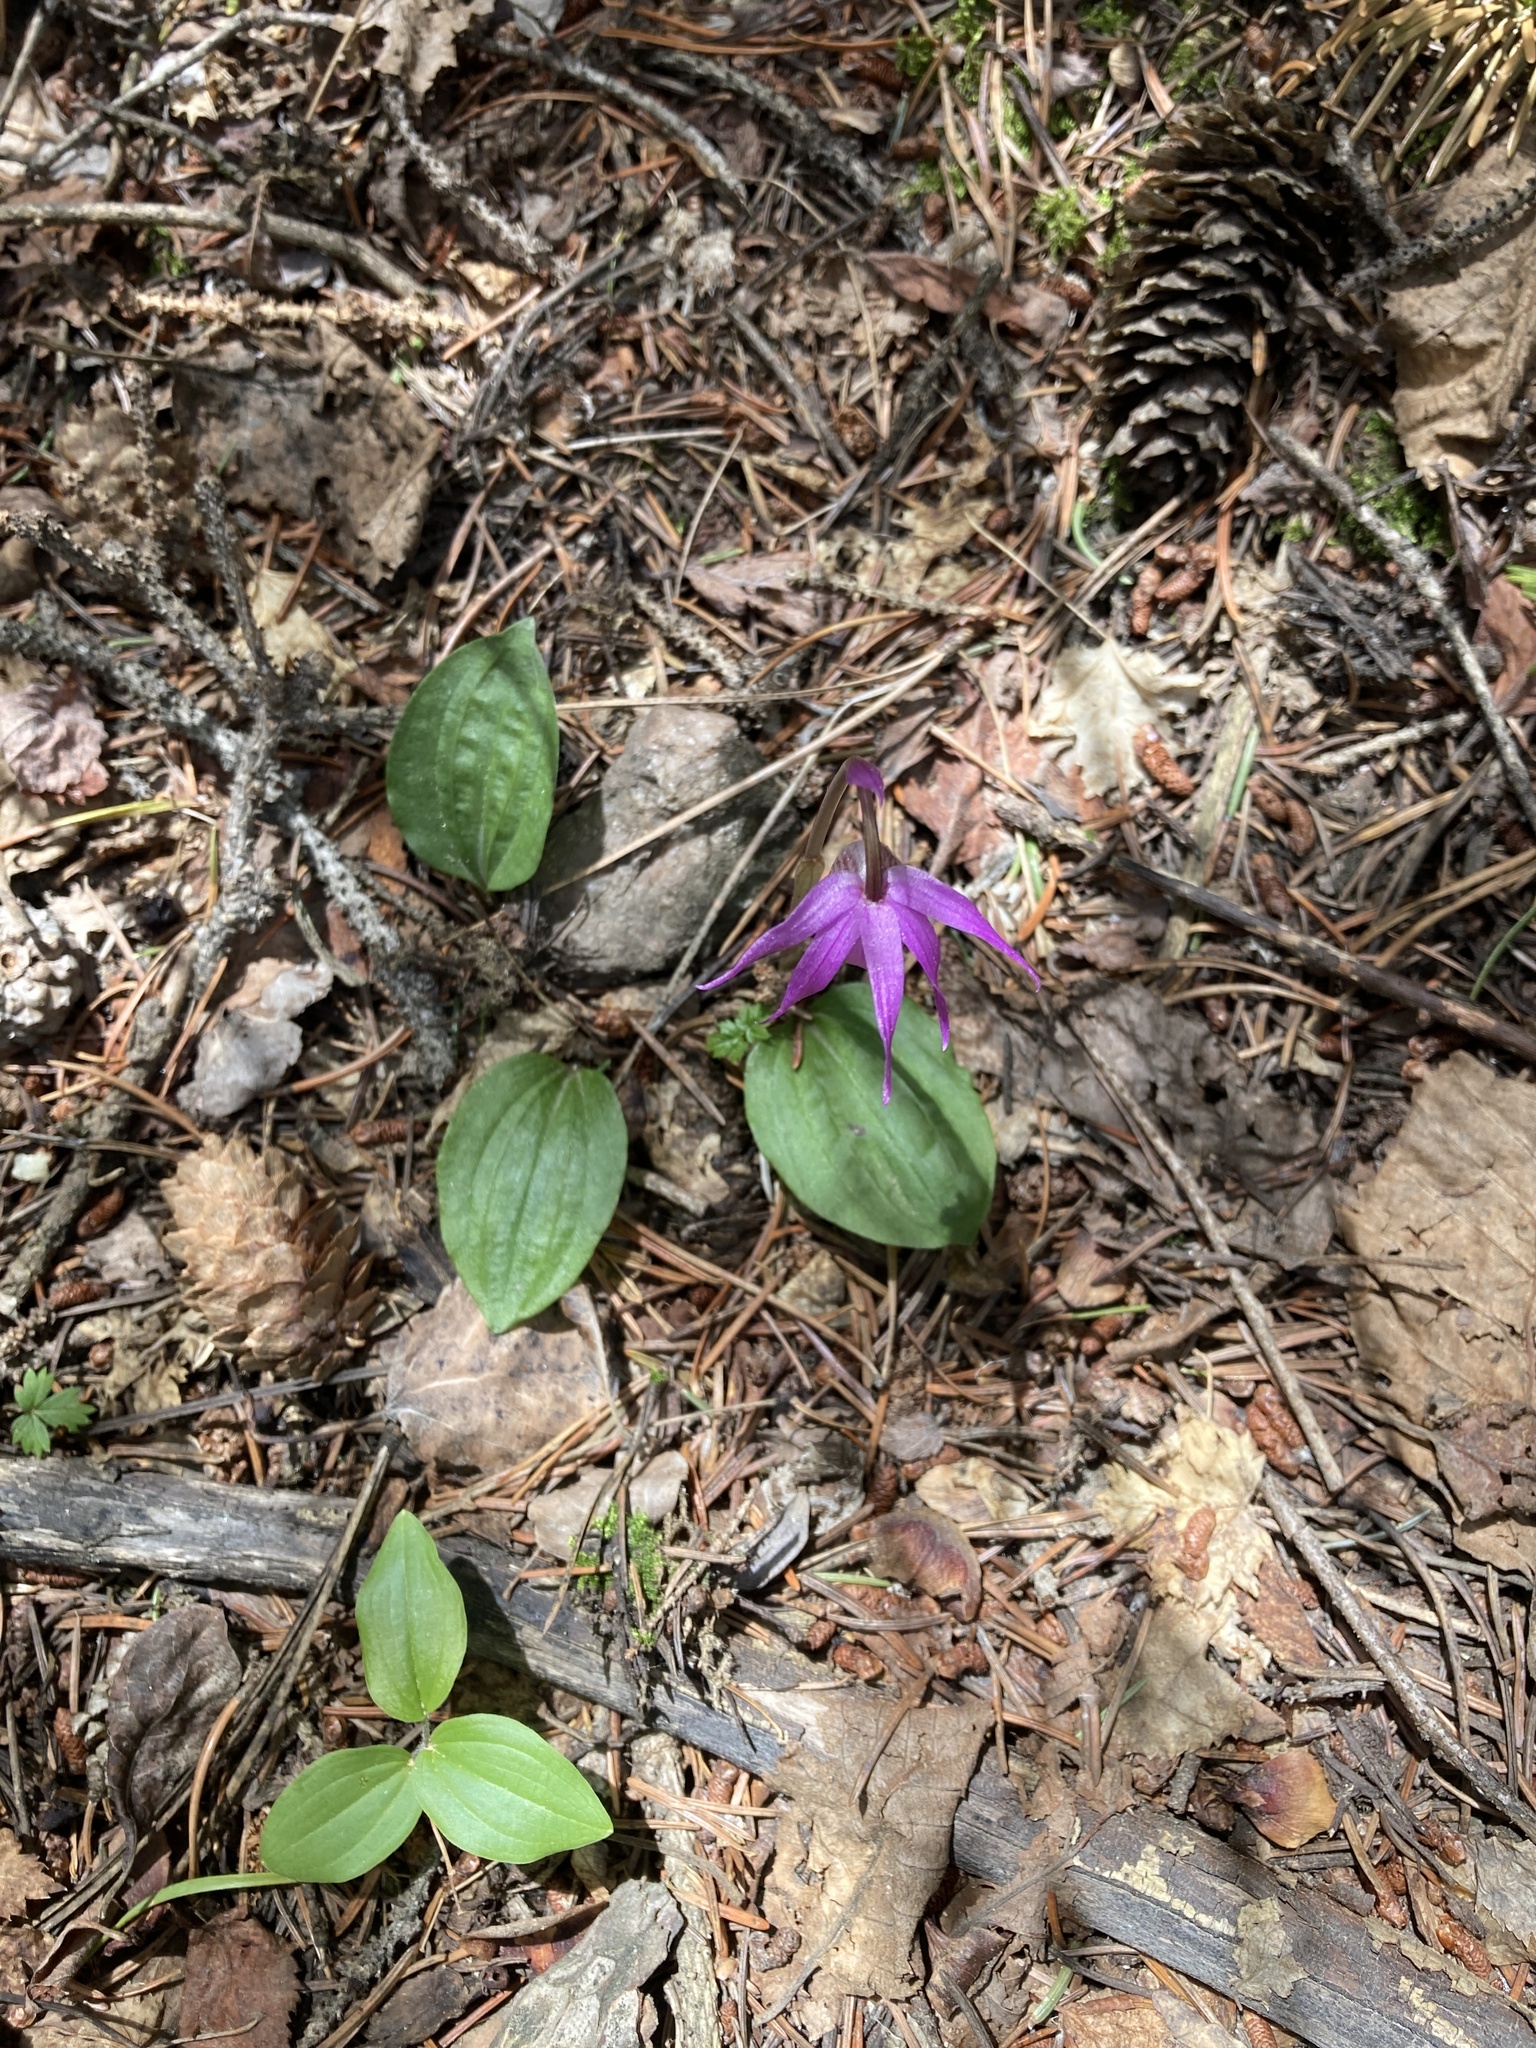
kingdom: Plantae
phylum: Tracheophyta
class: Liliopsida
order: Asparagales
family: Orchidaceae
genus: Calypso
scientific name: Calypso bulbosa
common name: Calypso
